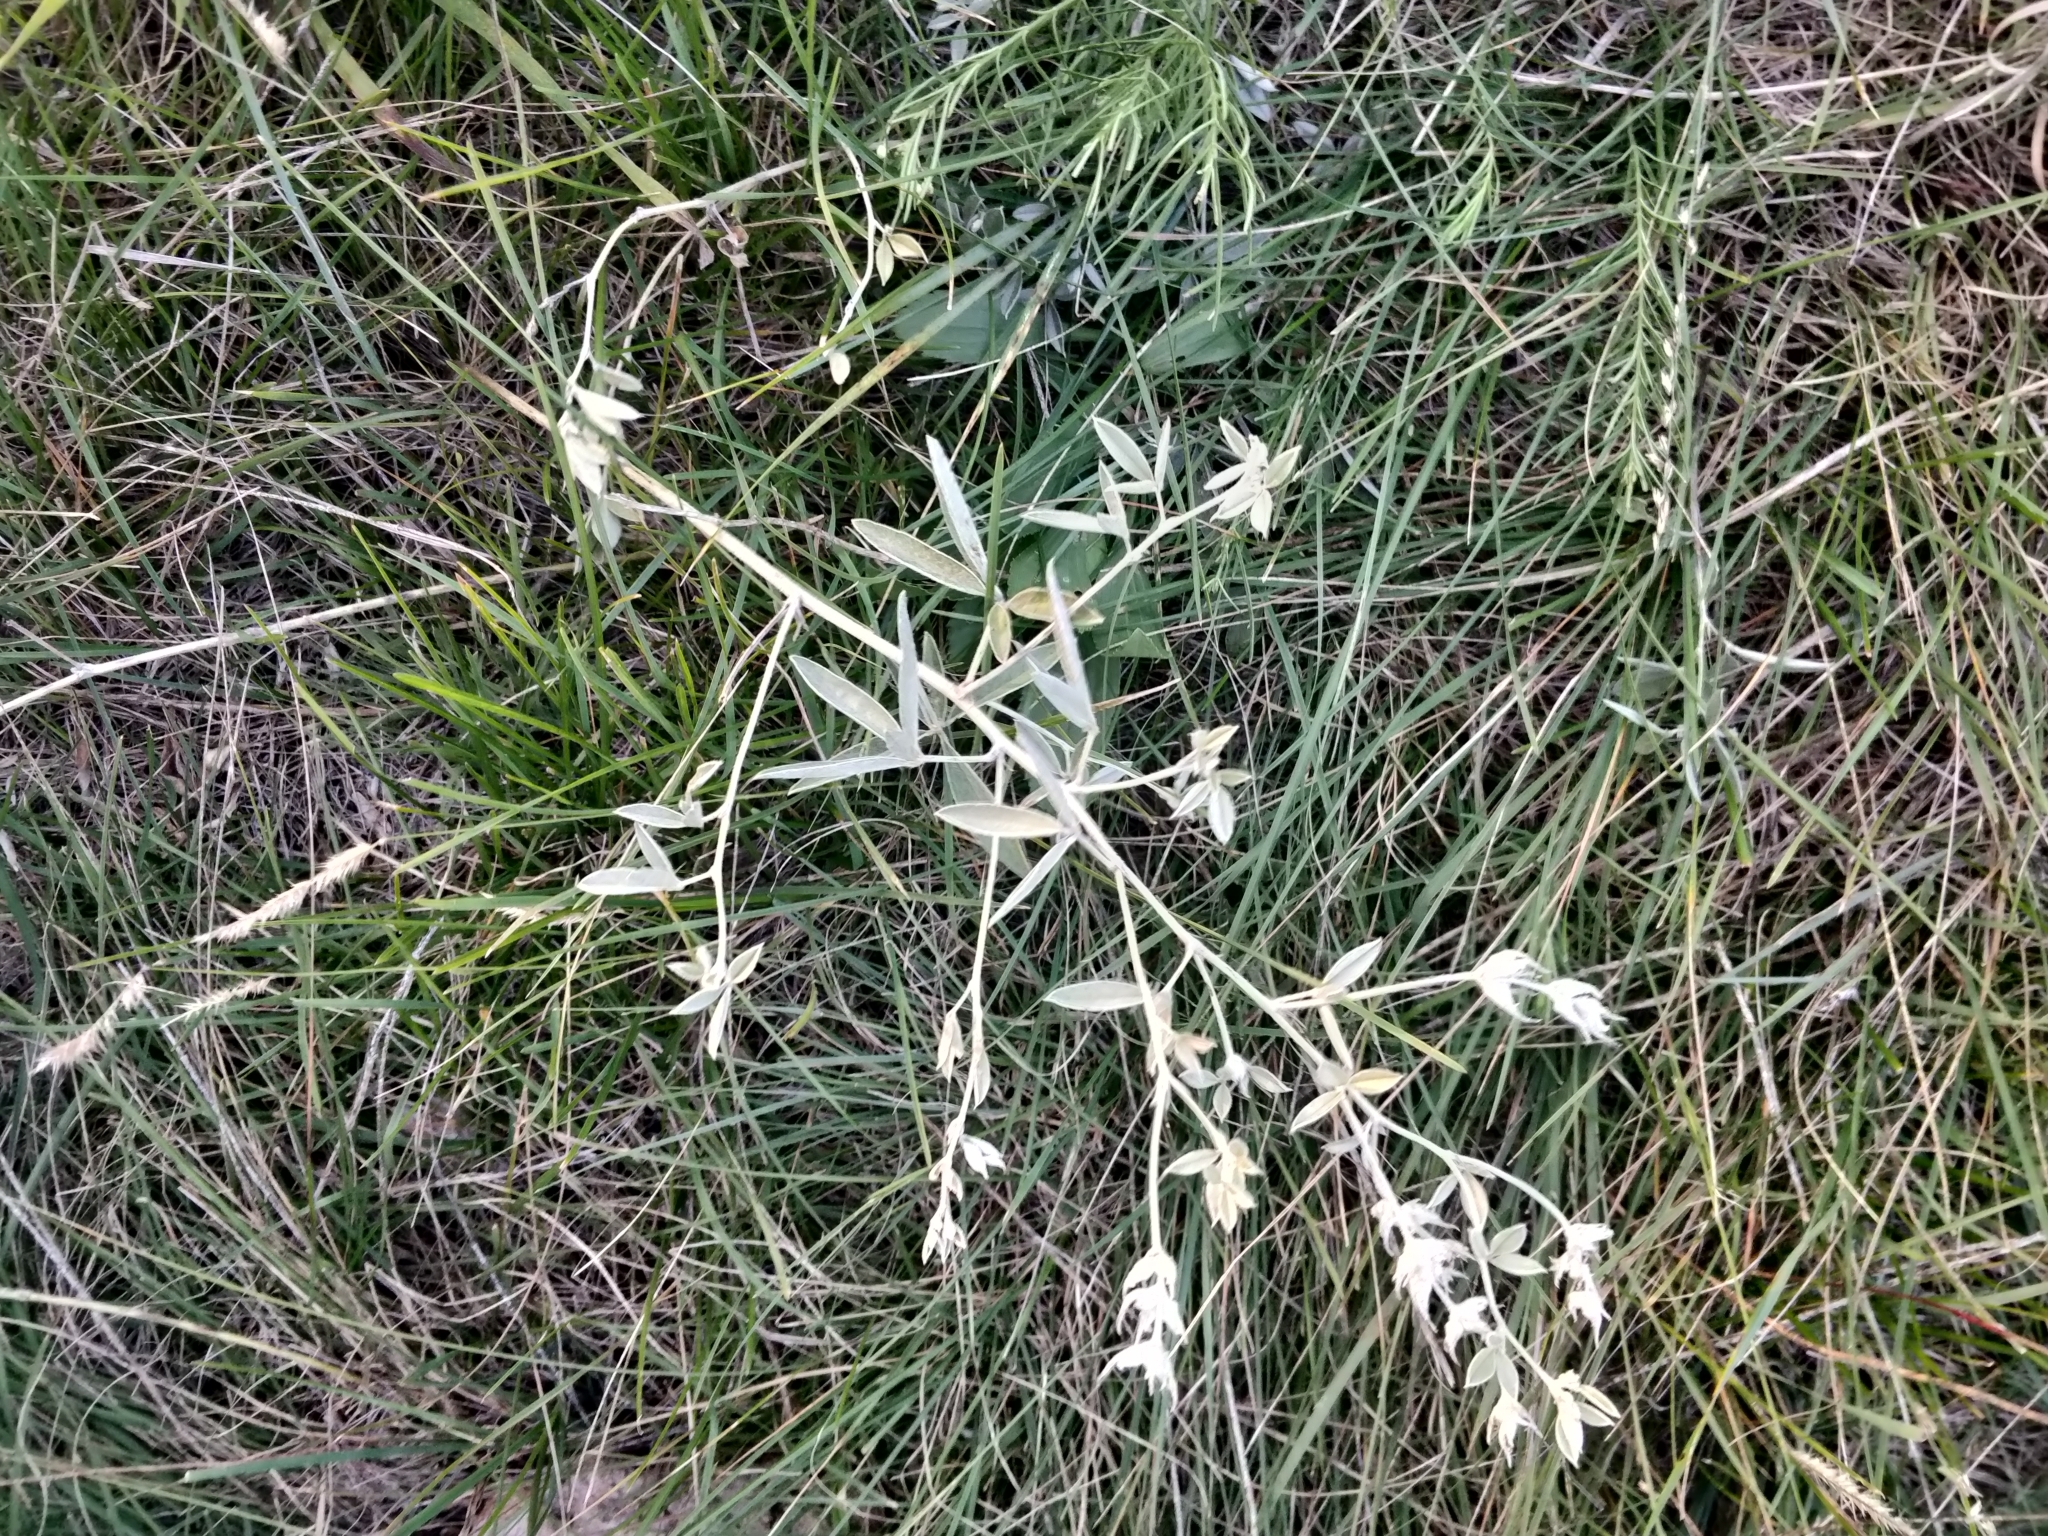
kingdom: Plantae
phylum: Tracheophyta
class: Magnoliopsida
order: Fabales
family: Fabaceae
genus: Pediomelum
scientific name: Pediomelum argophyllum
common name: Silver-leaved indian breadroot
